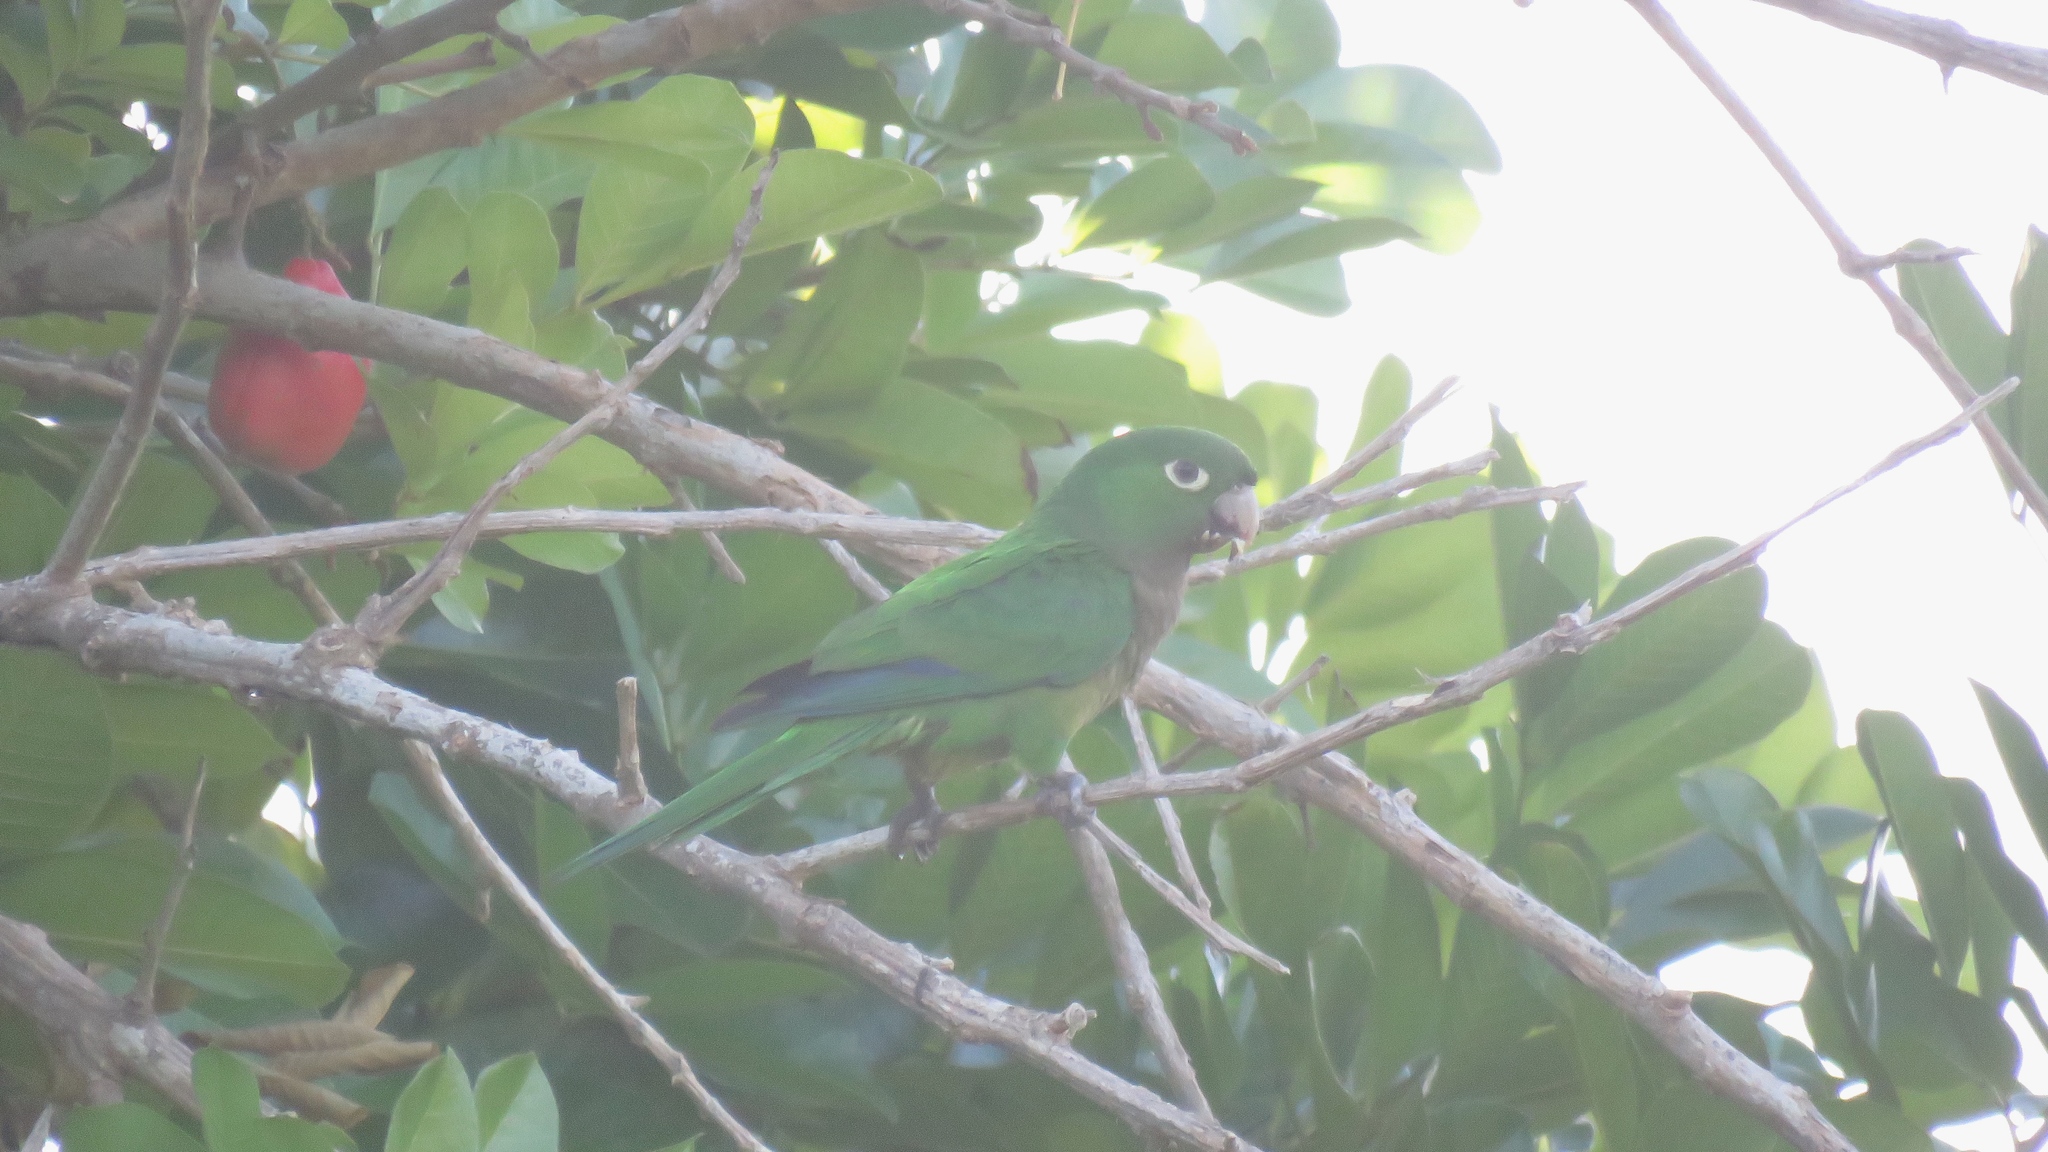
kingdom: Animalia
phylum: Chordata
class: Aves
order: Psittaciformes
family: Psittacidae
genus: Aratinga
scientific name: Aratinga nana
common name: Olive-throated parakeet
